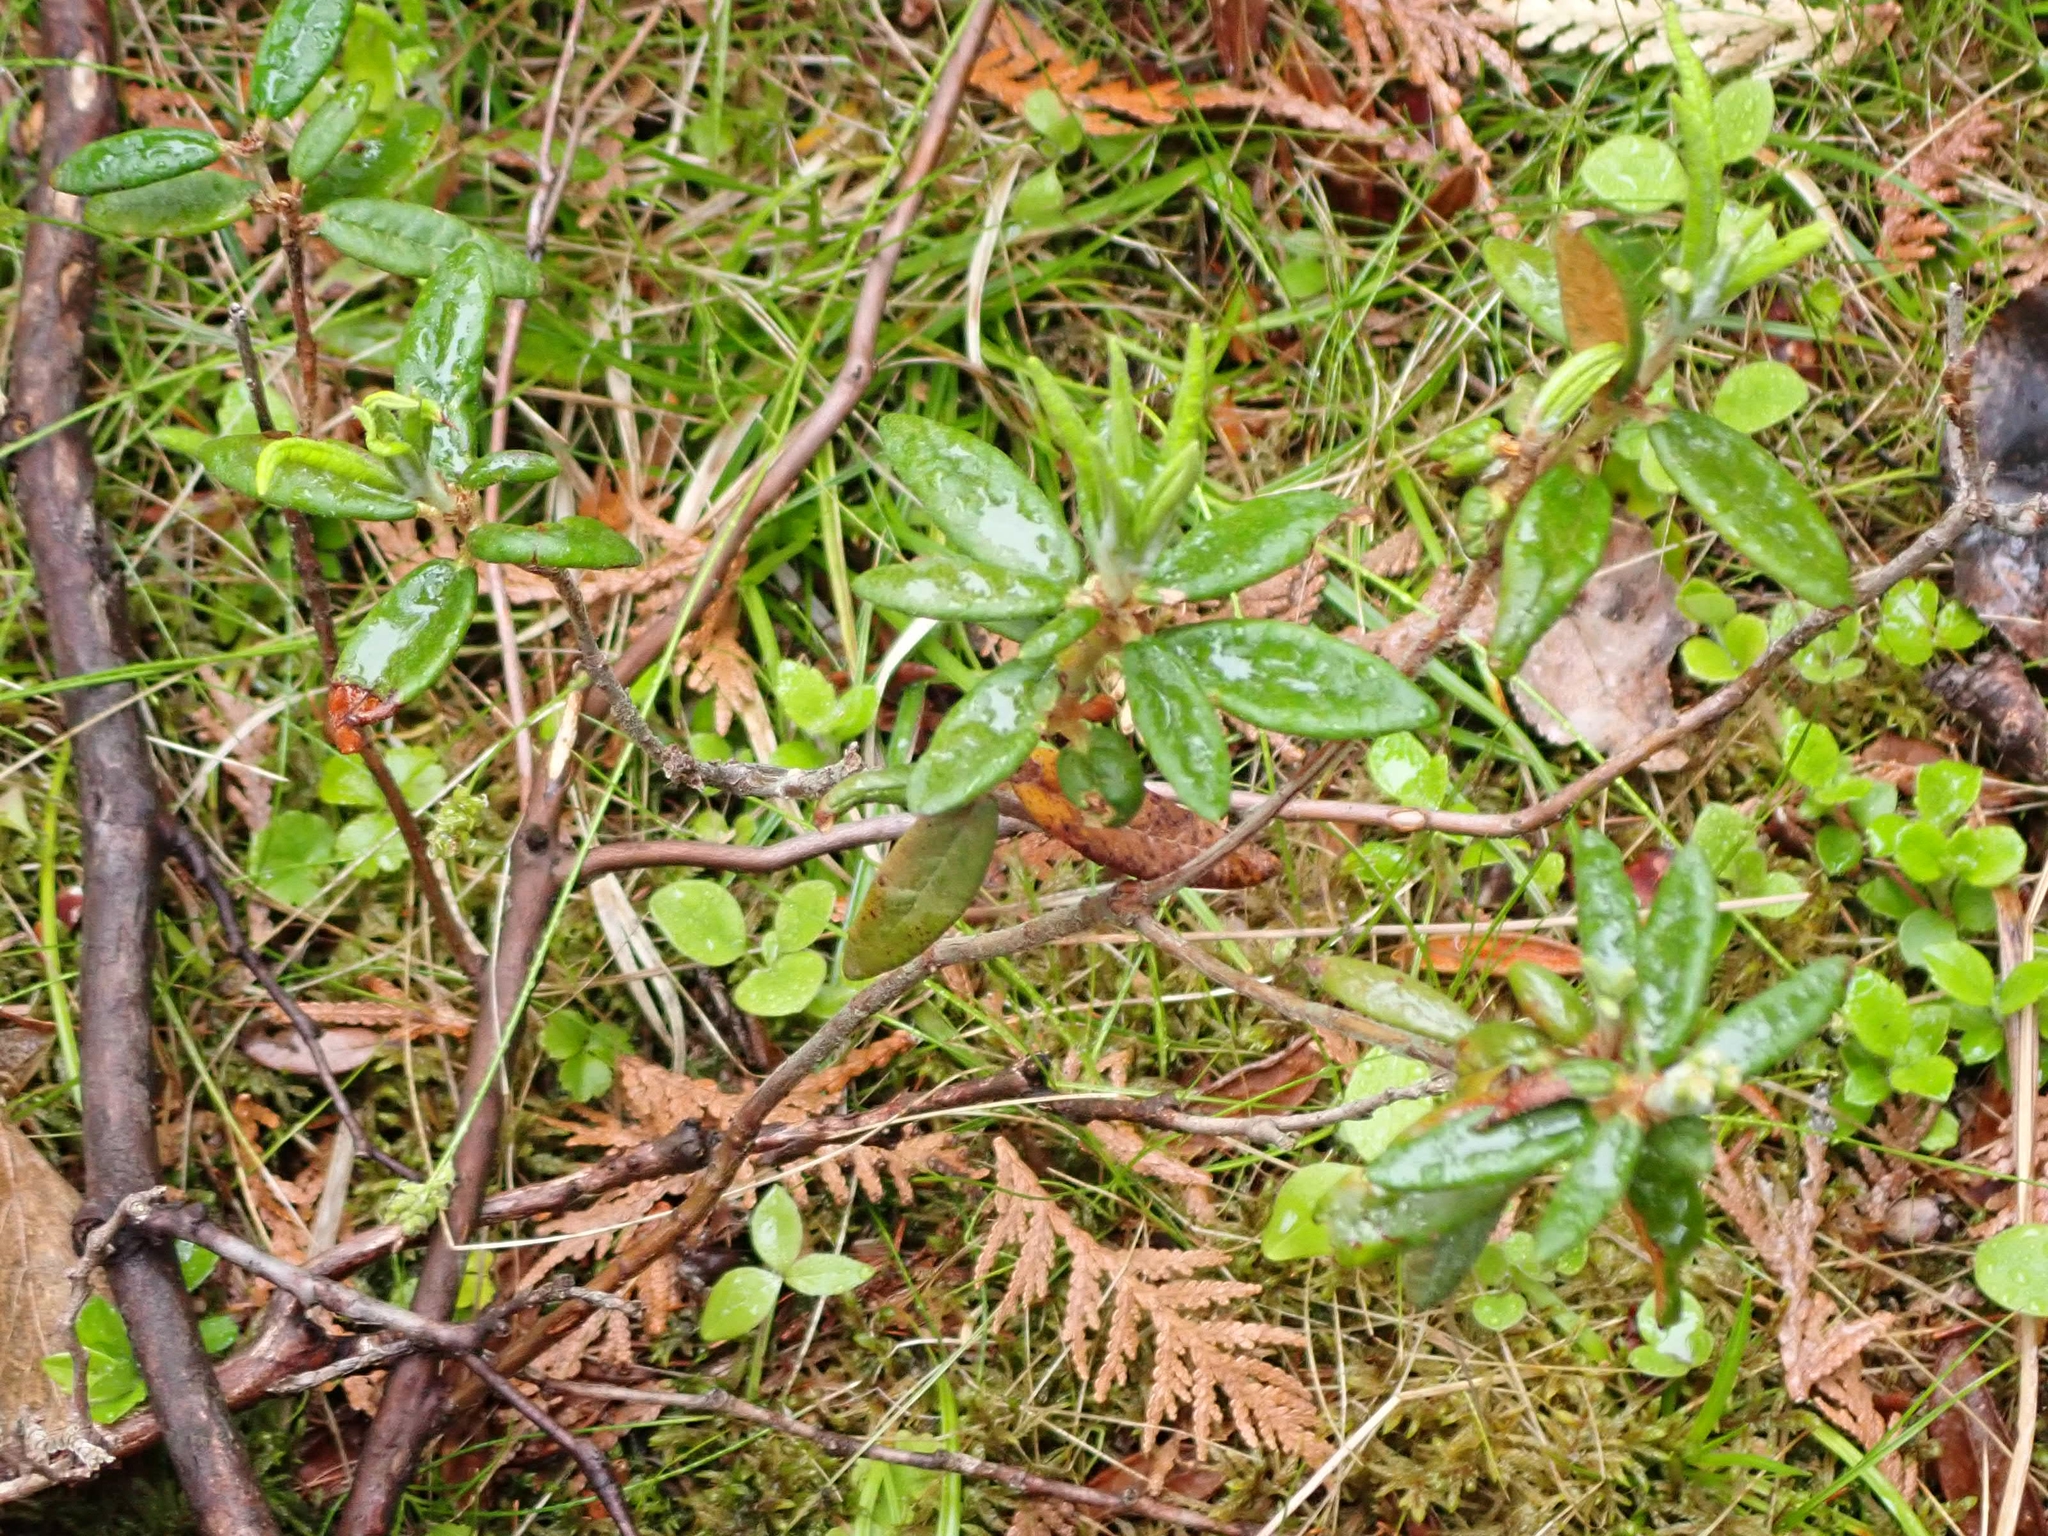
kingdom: Plantae
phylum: Tracheophyta
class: Magnoliopsida
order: Ericales
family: Ericaceae
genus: Rhododendron
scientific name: Rhododendron groenlandicum
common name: Bog labrador tea
